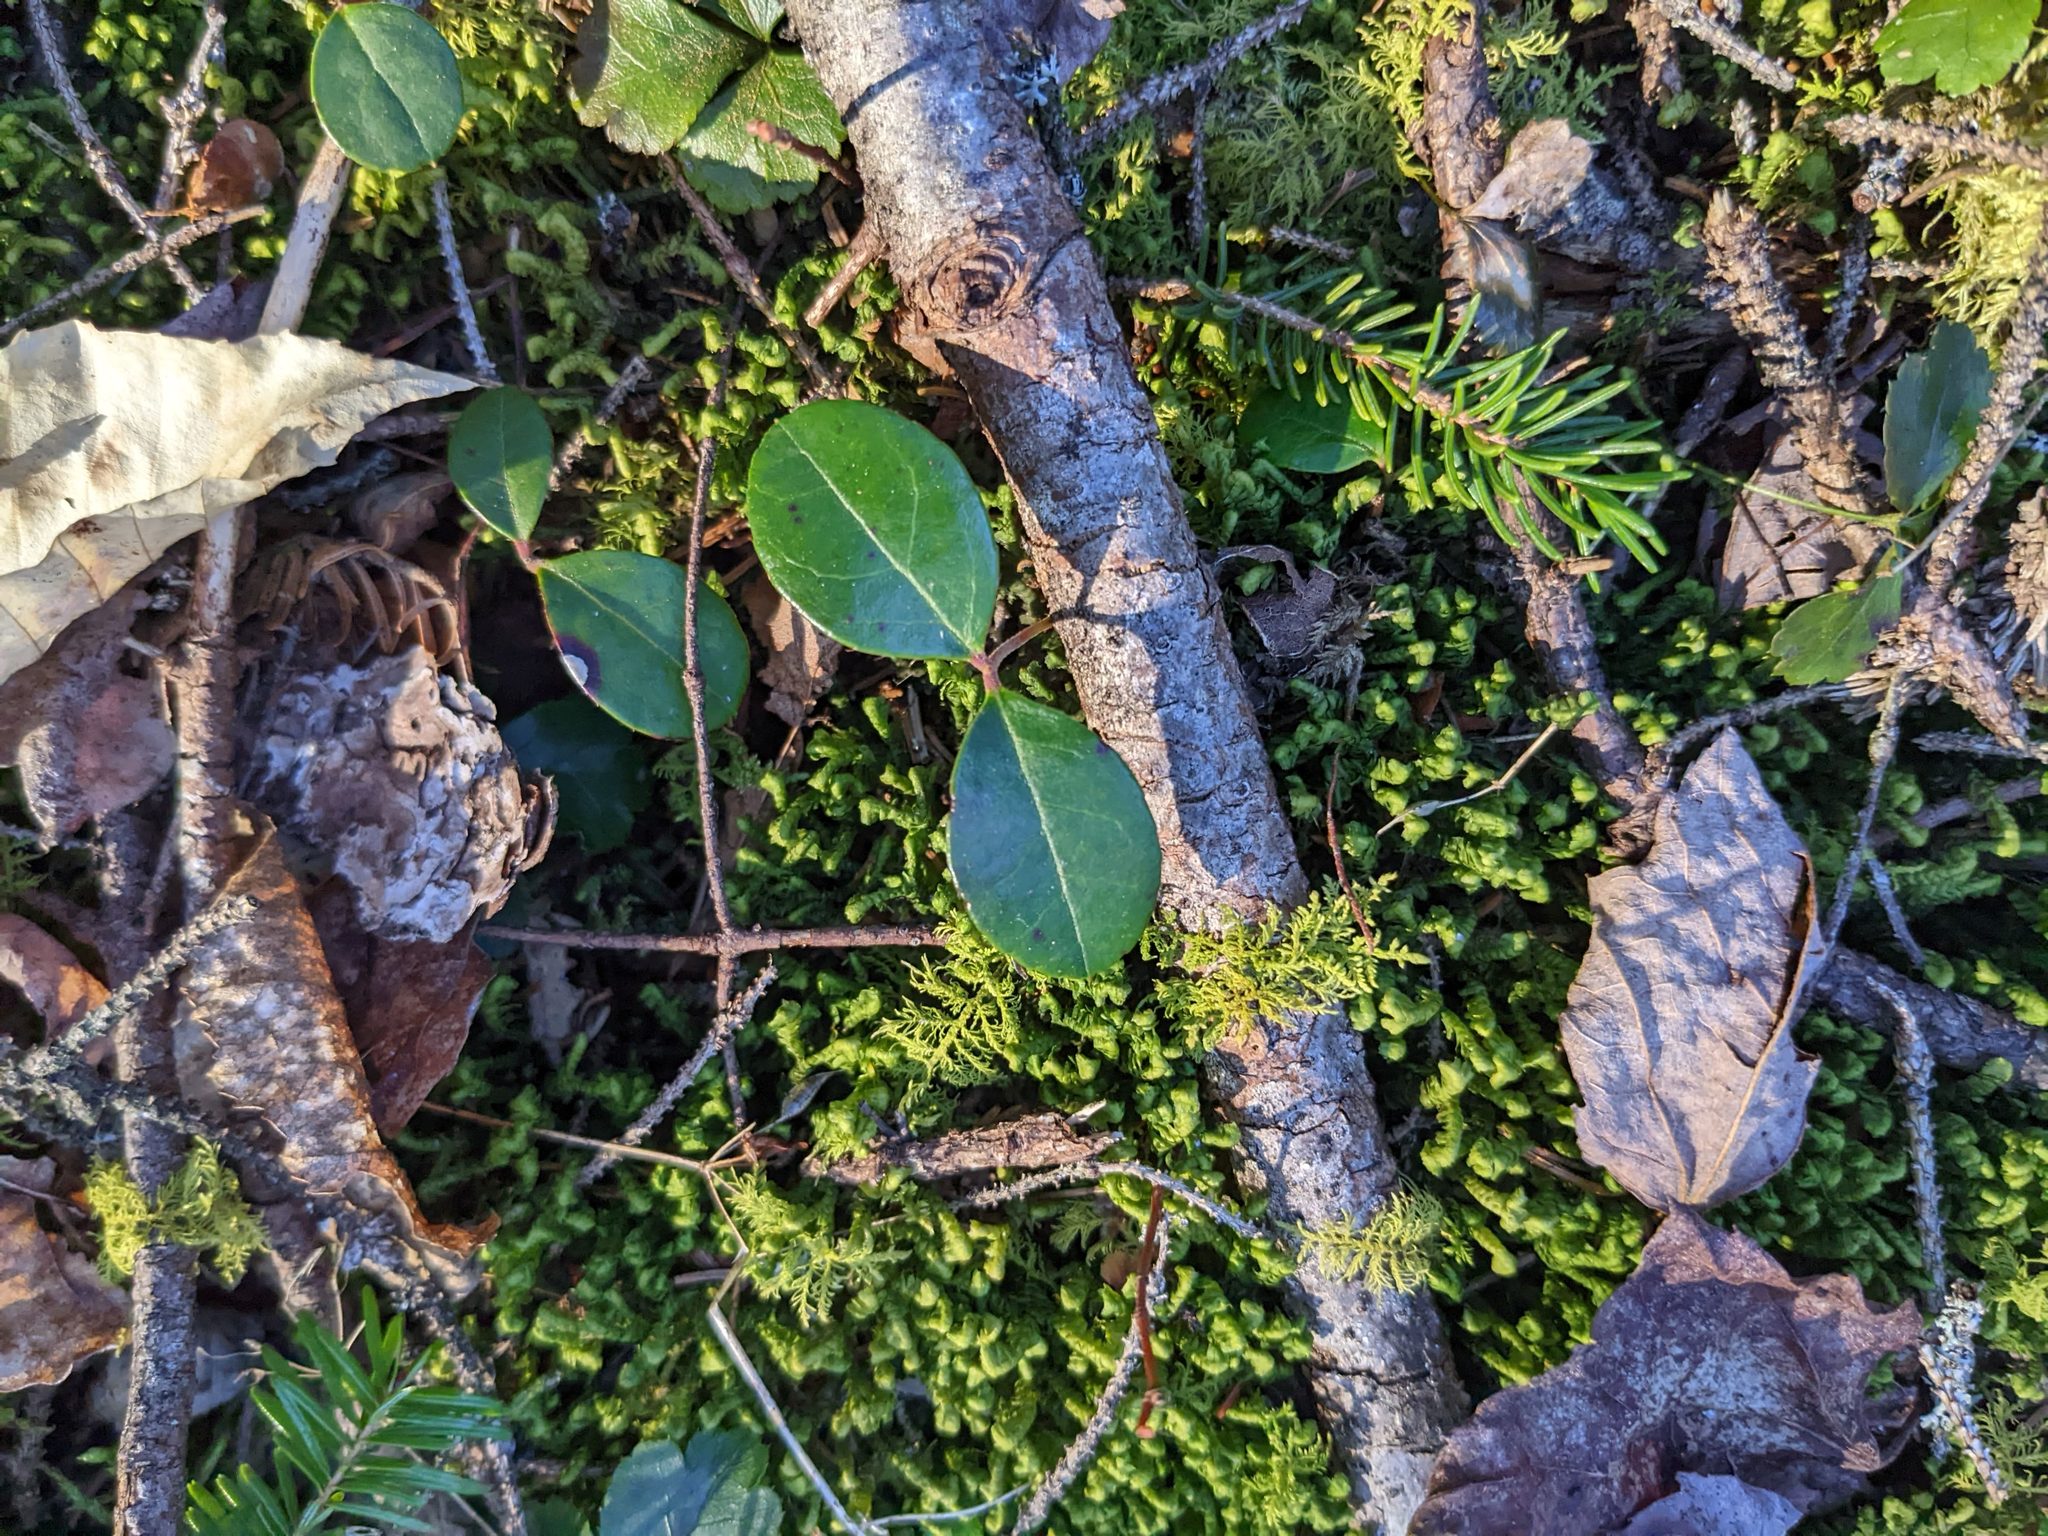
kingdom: Plantae
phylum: Tracheophyta
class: Magnoliopsida
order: Ericales
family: Ericaceae
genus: Gaultheria
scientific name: Gaultheria procumbens
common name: Checkerberry
